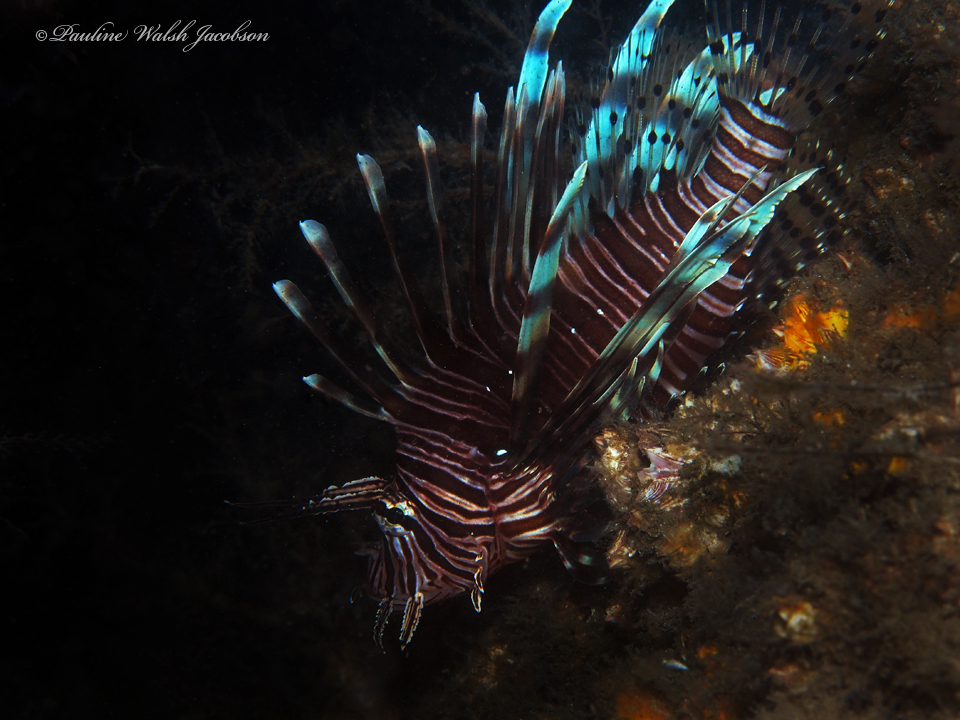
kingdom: Animalia
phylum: Chordata
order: Scorpaeniformes
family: Scorpaenidae
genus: Pterois
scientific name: Pterois volitans
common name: Lionfish
